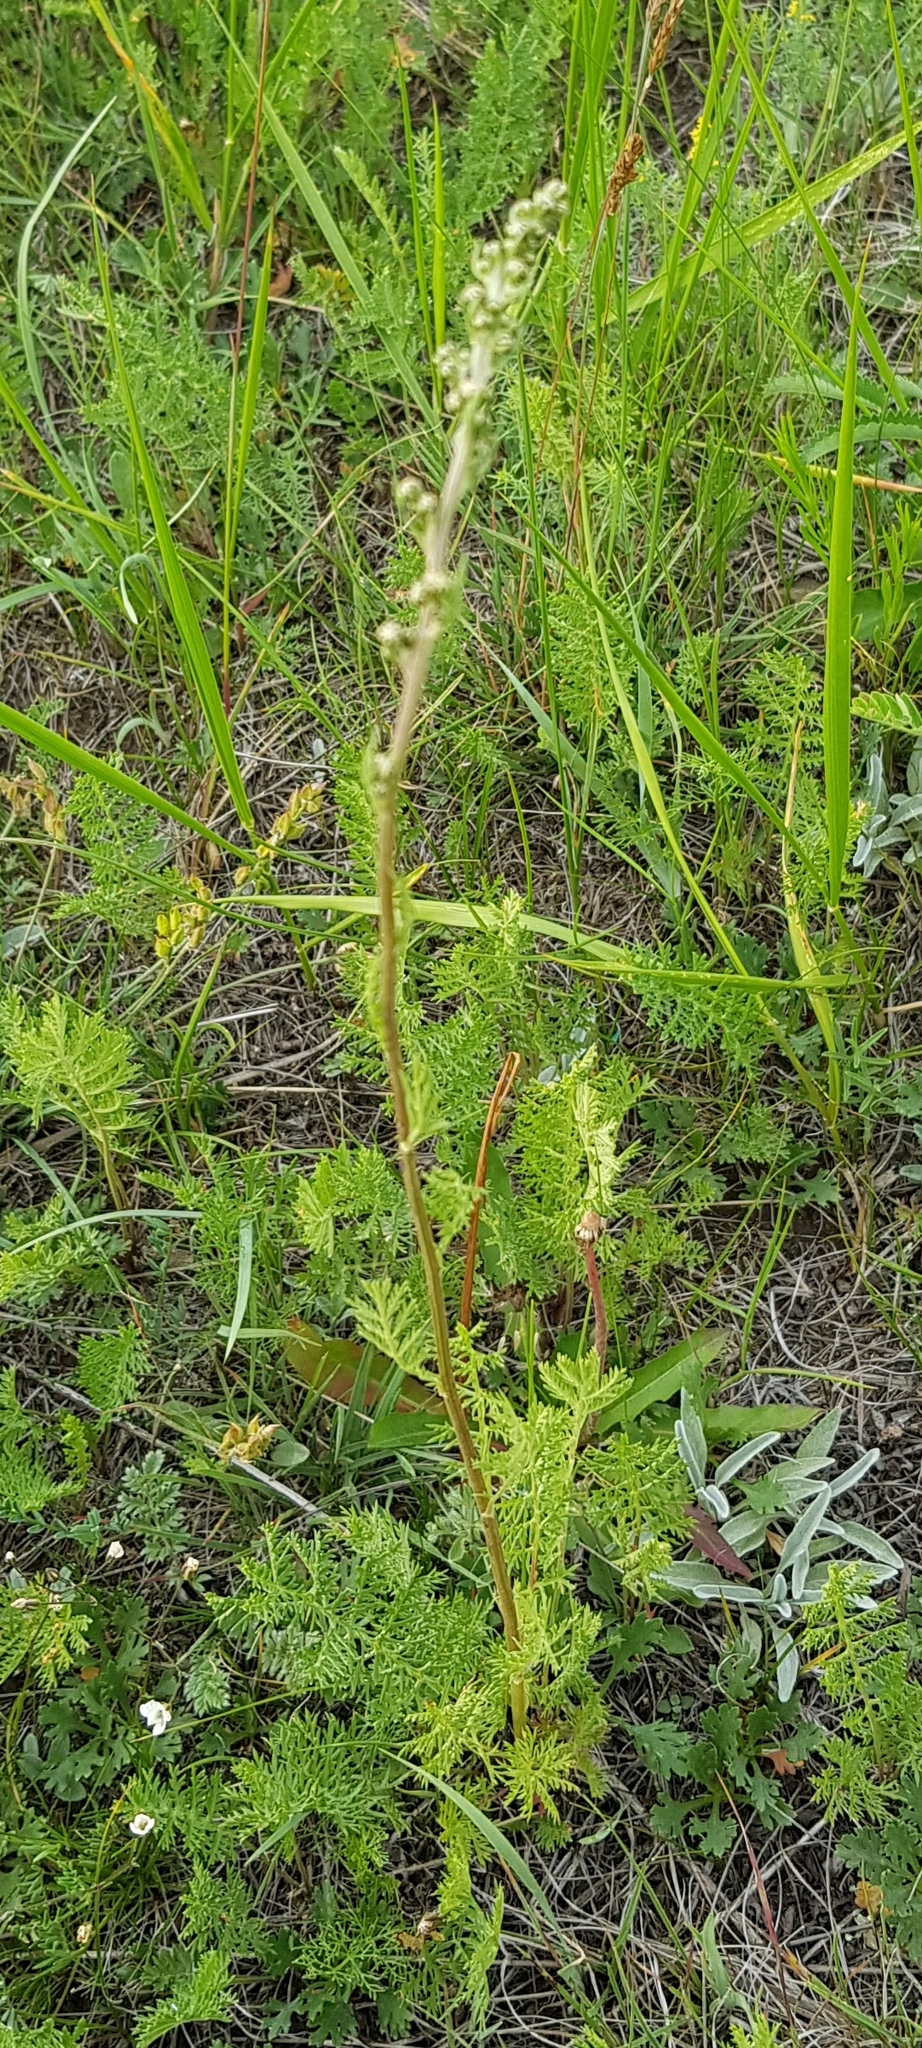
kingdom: Plantae
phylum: Tracheophyta
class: Magnoliopsida
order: Asterales
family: Asteraceae
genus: Artemisia
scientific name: Artemisia tanacetifolia
